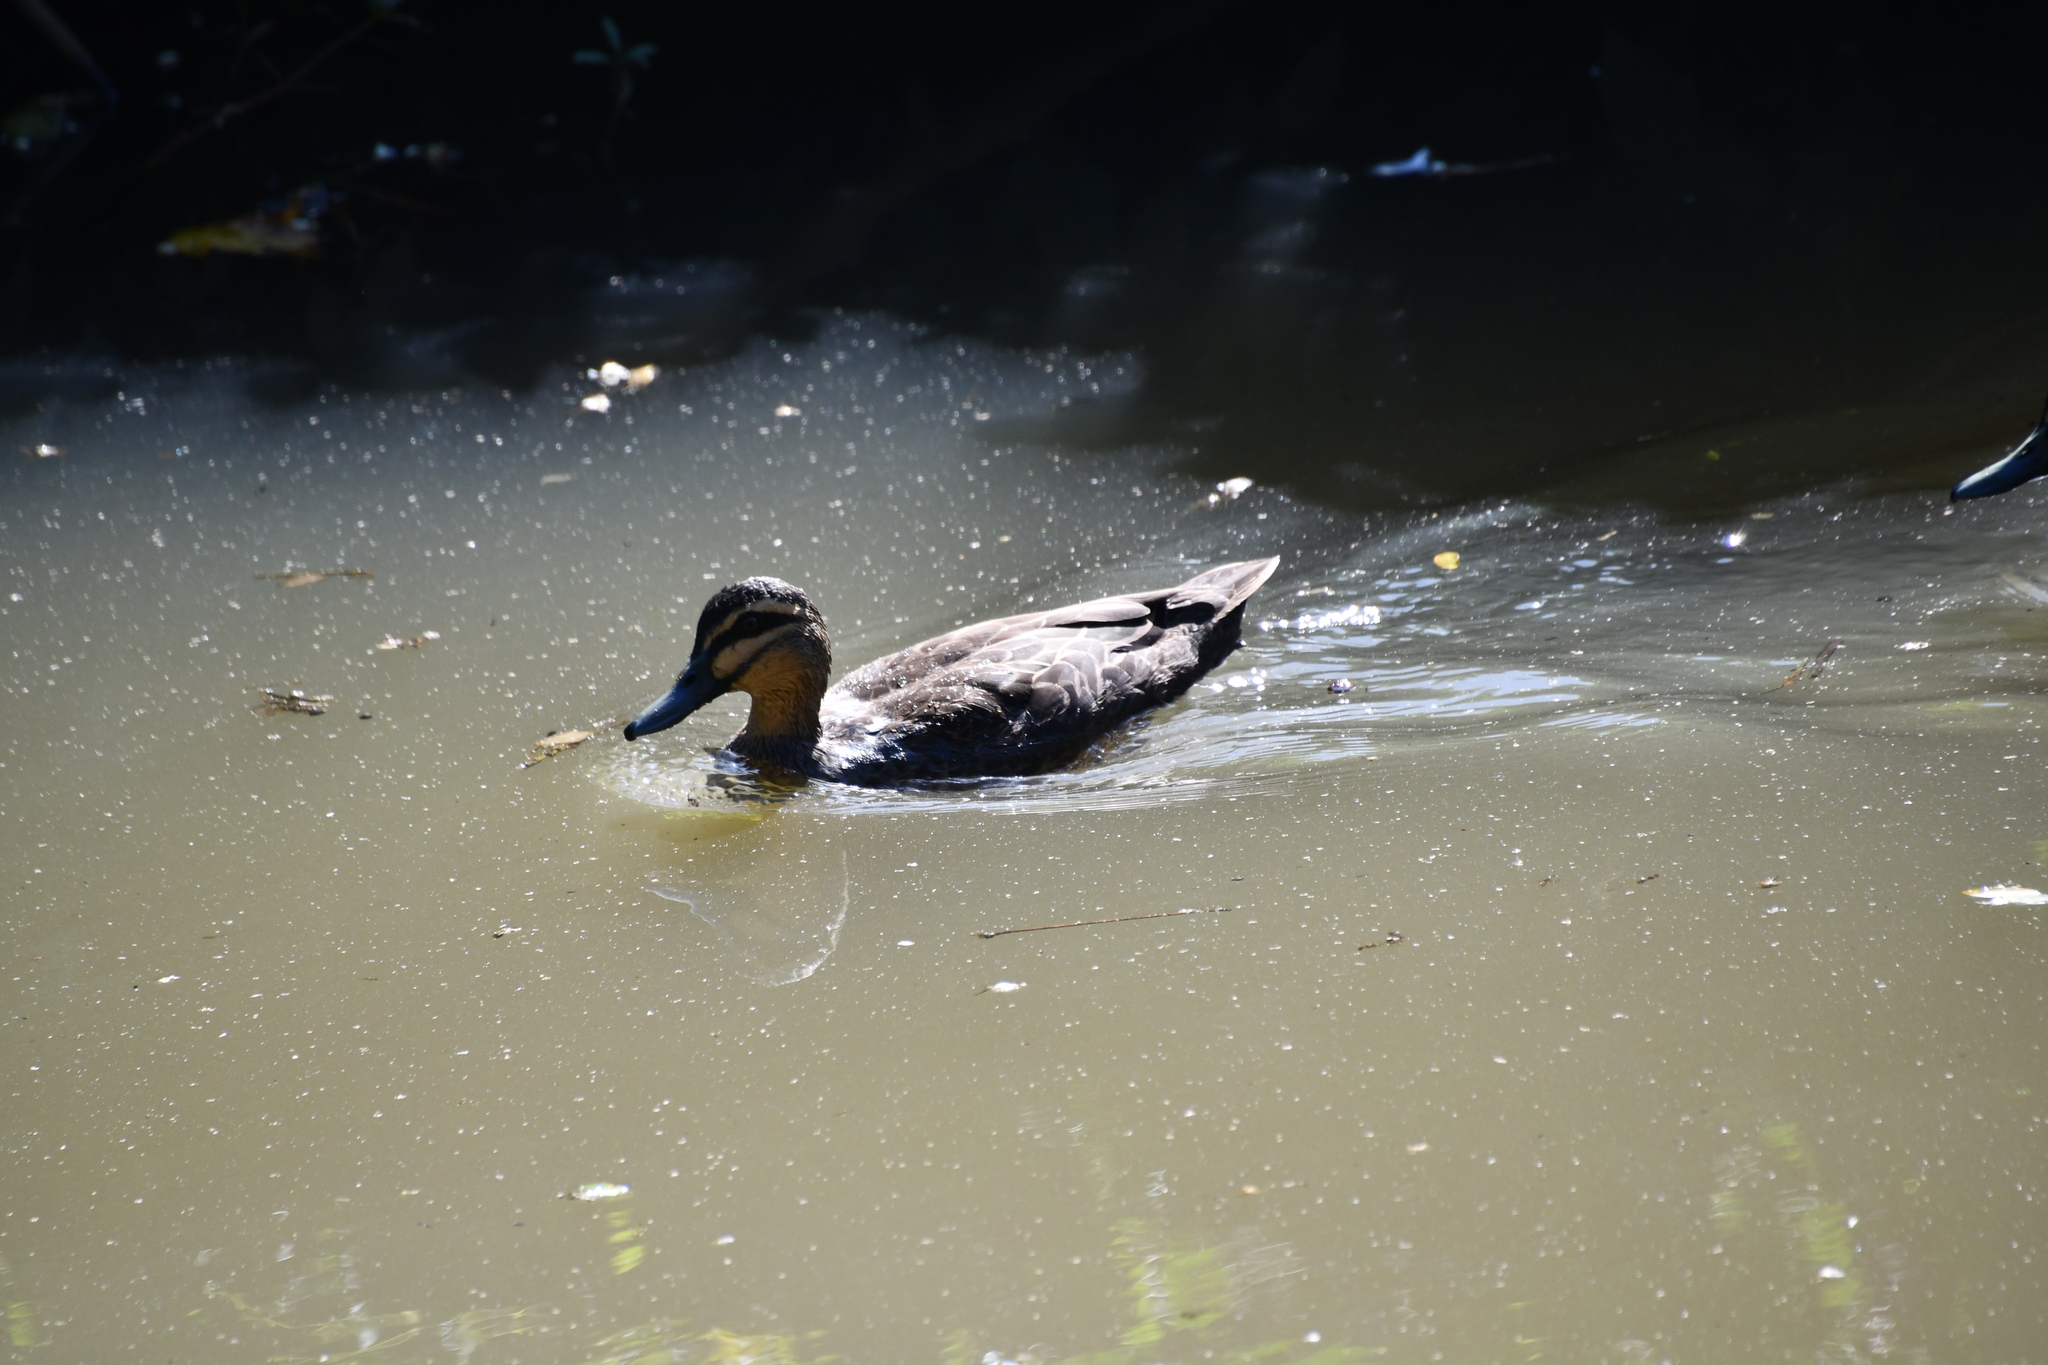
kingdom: Animalia
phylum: Chordata
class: Aves
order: Anseriformes
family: Anatidae
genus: Anas
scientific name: Anas superciliosa
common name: Pacific black duck
